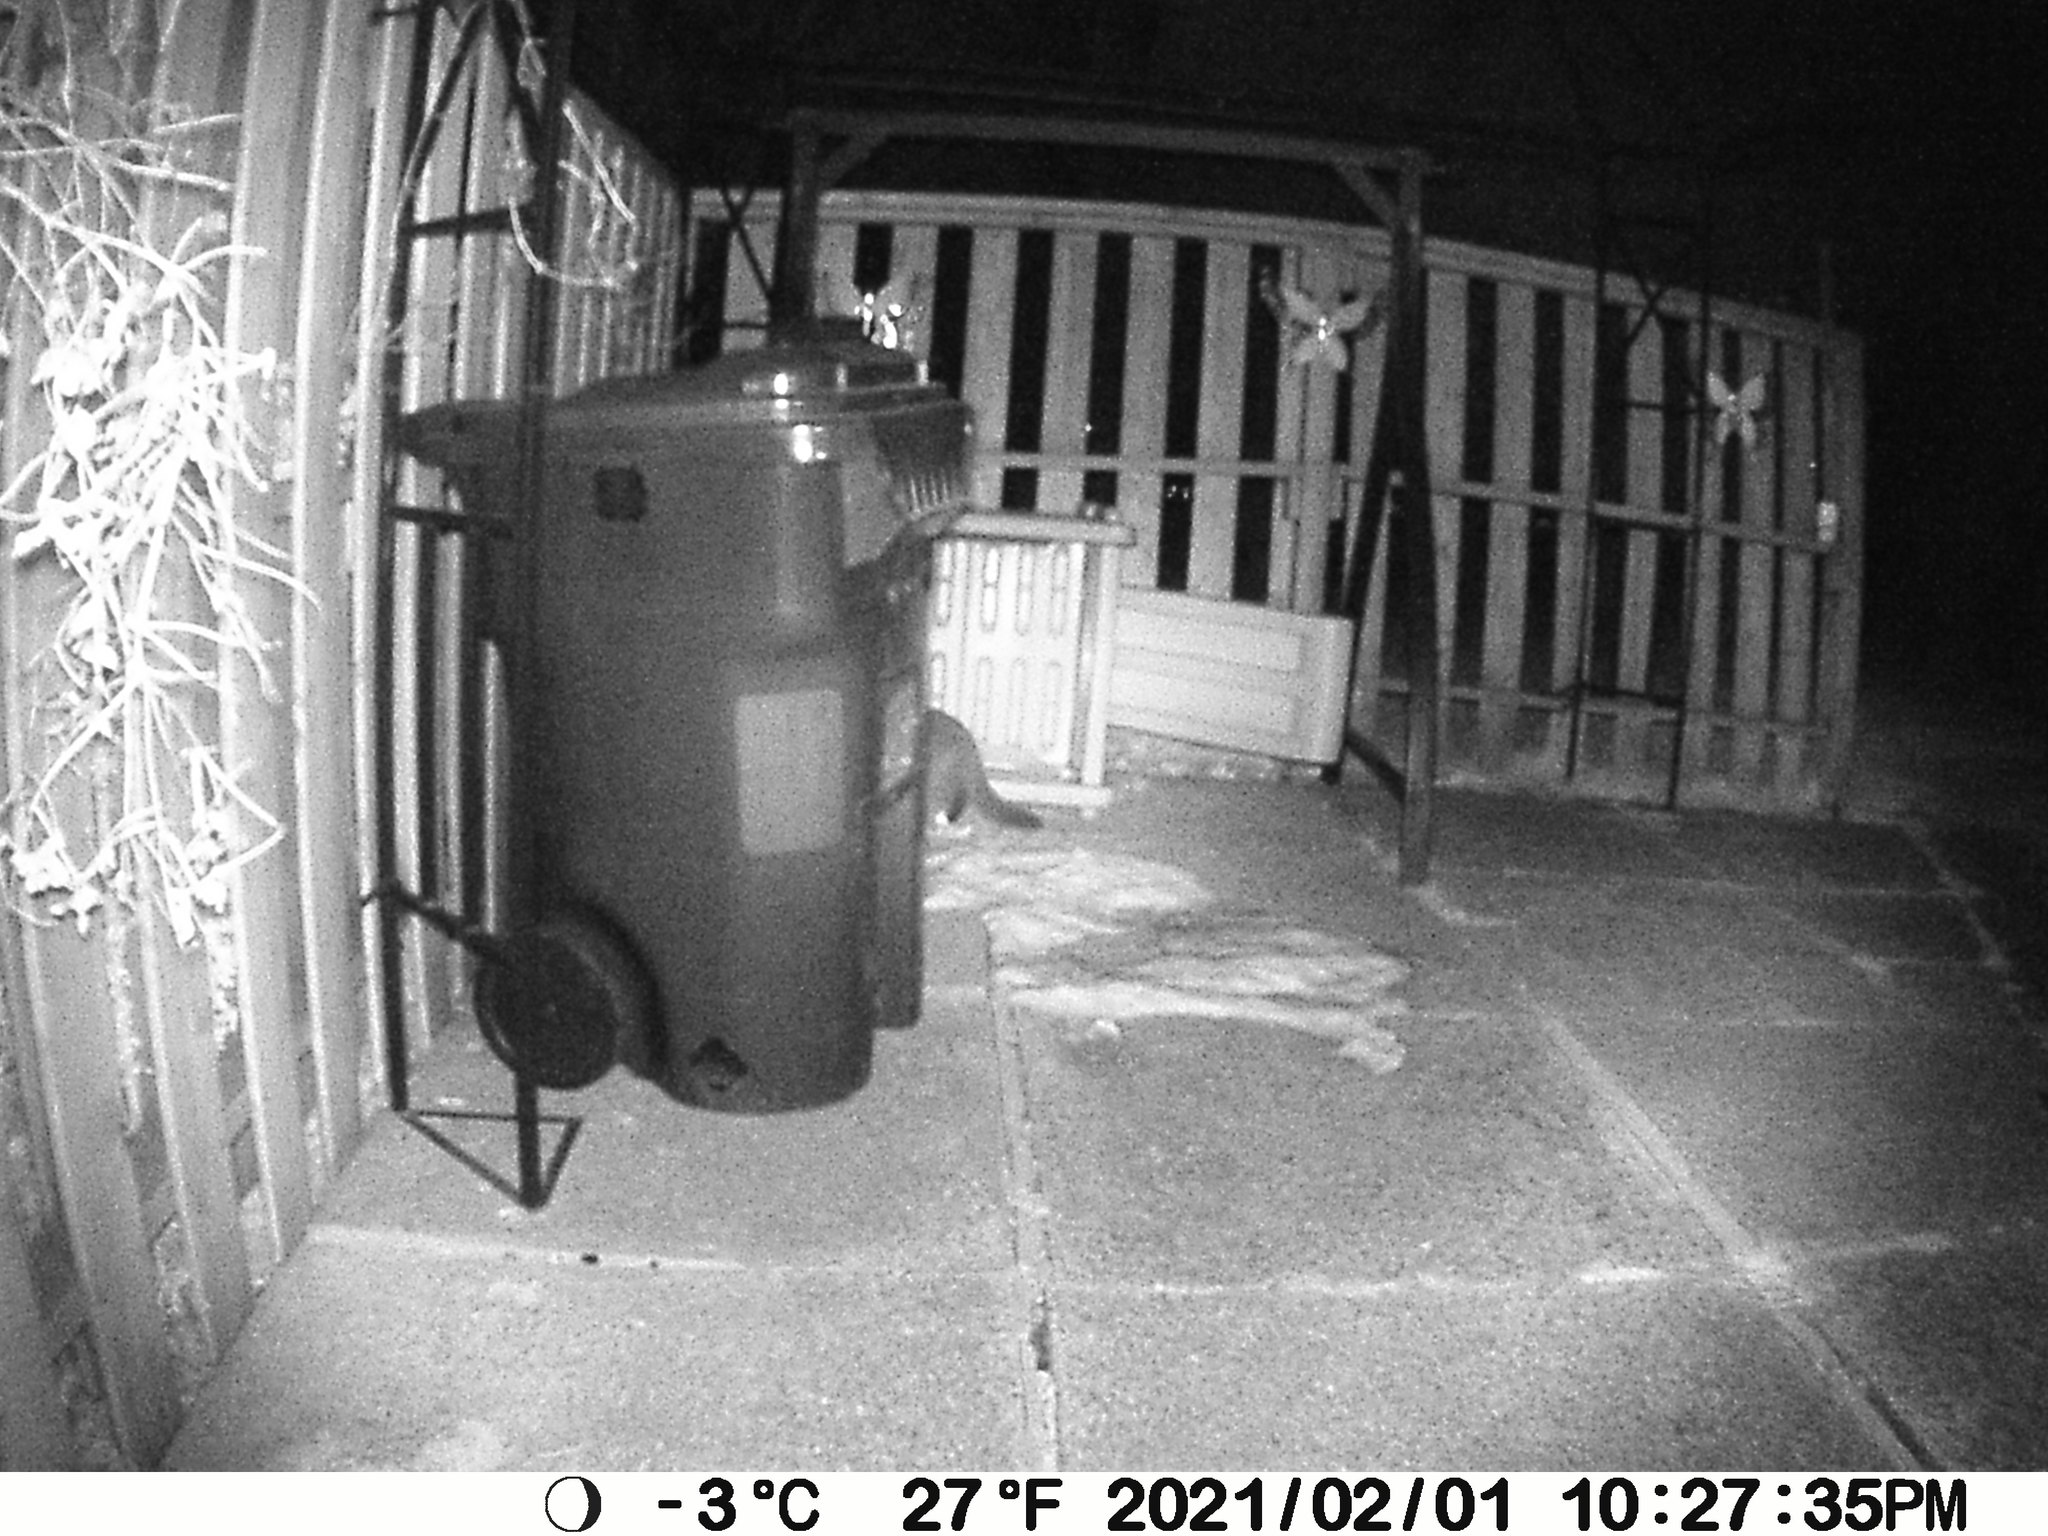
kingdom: Animalia
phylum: Chordata
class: Mammalia
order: Carnivora
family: Felidae
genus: Felis
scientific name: Felis catus
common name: Domestic cat
